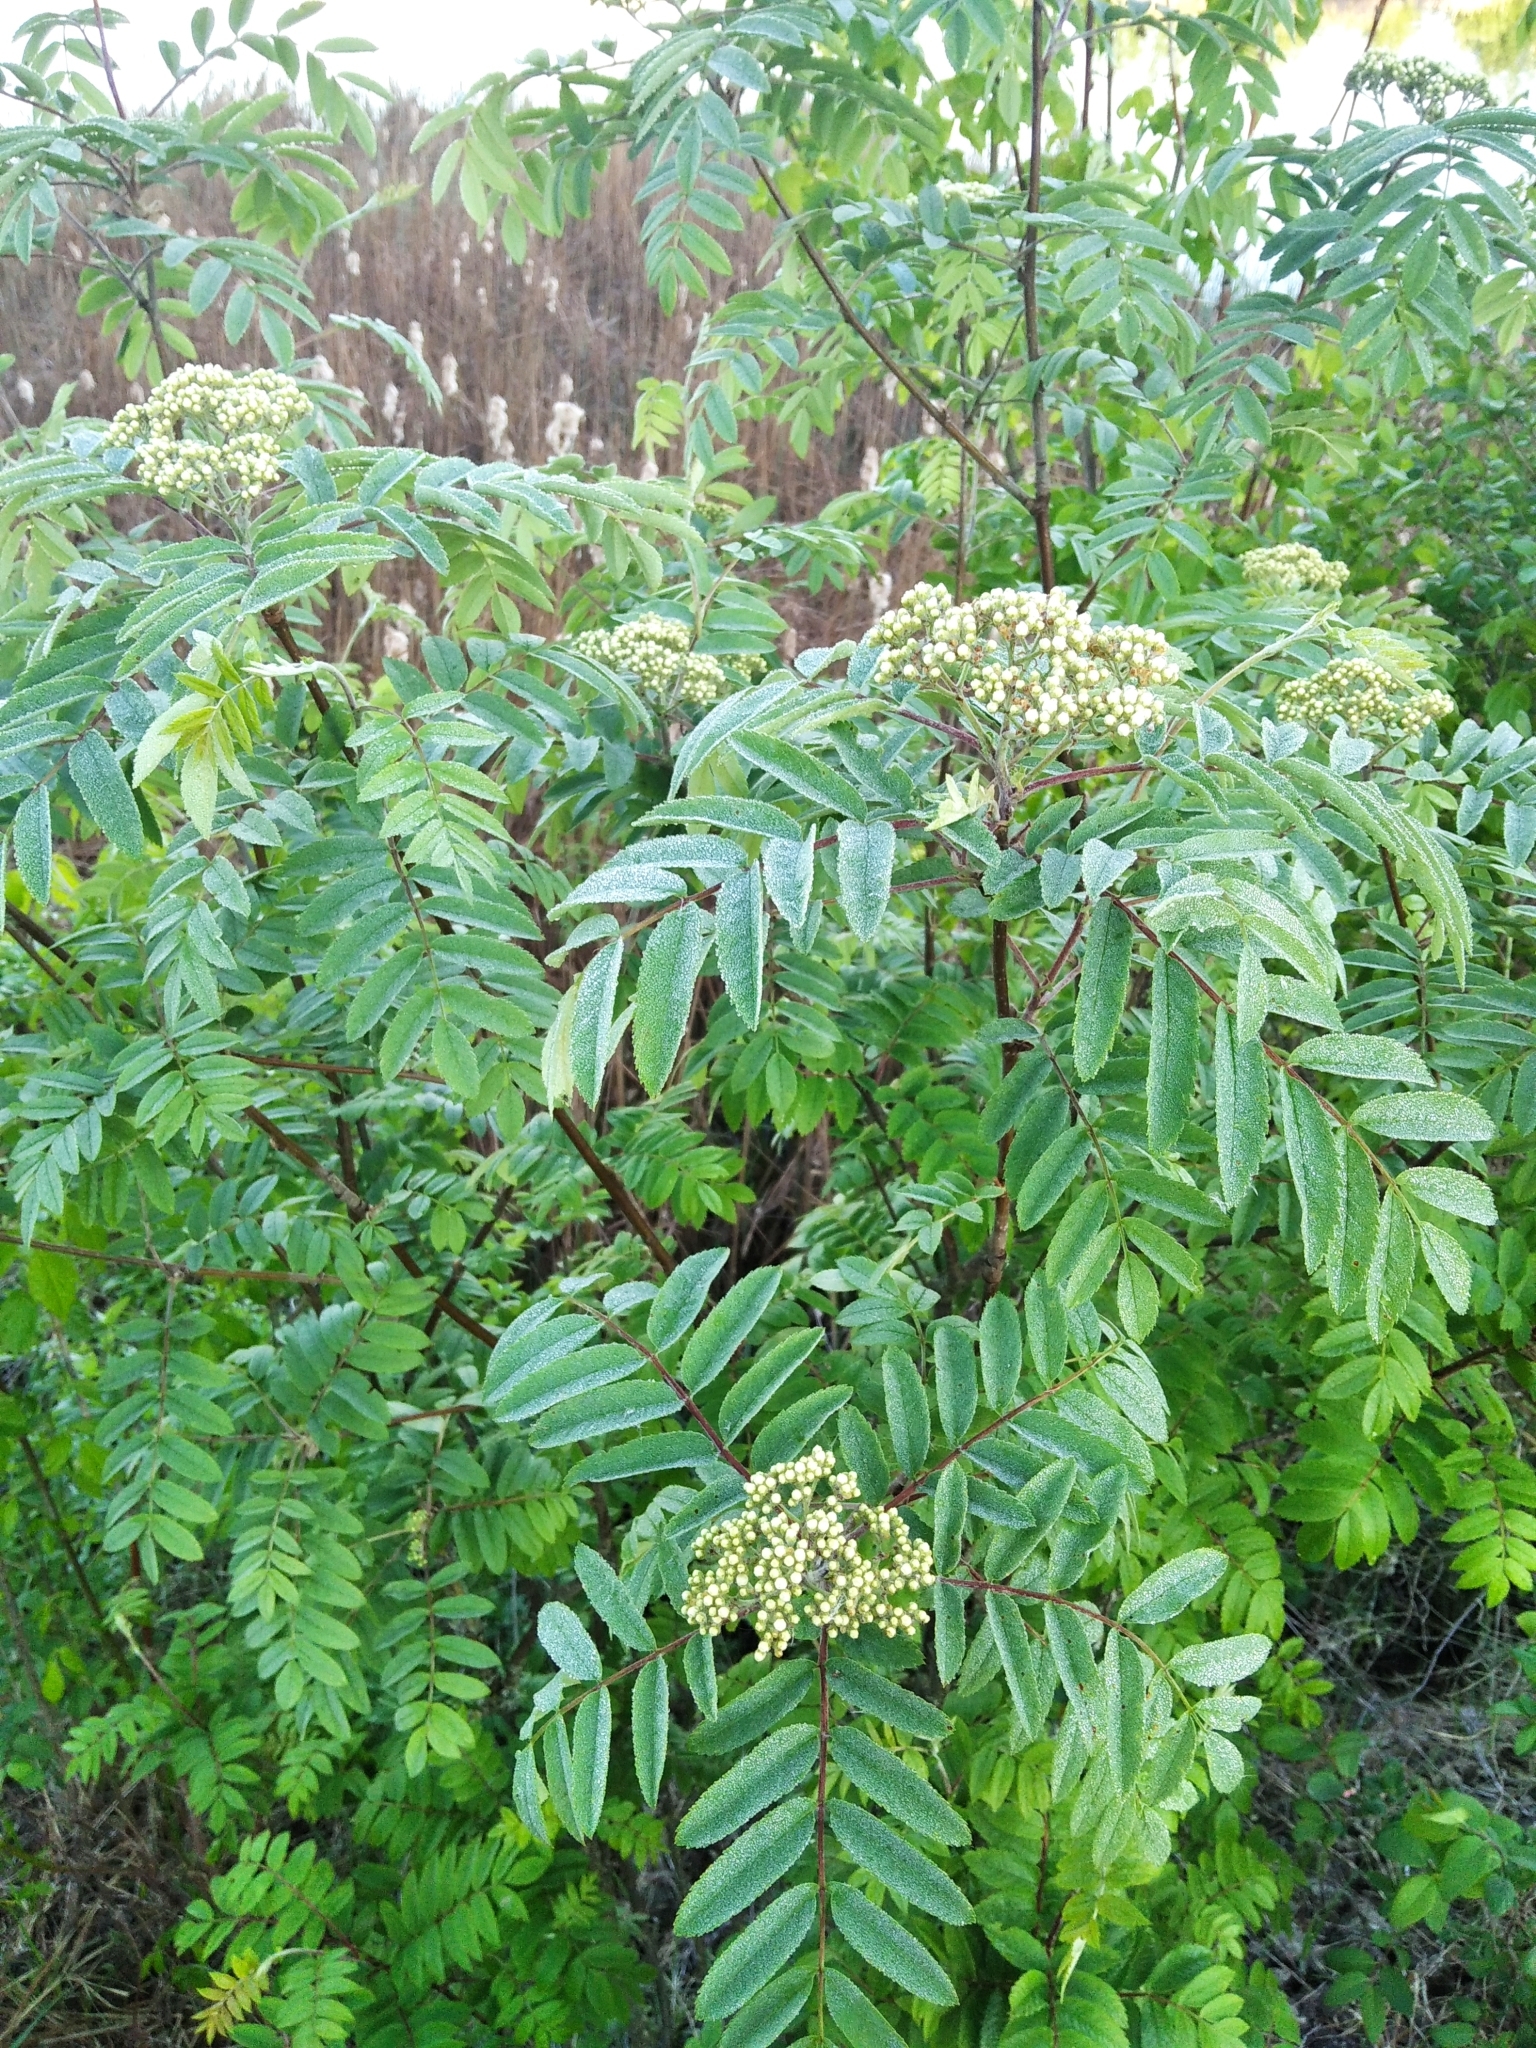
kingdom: Plantae
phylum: Tracheophyta
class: Magnoliopsida
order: Rosales
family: Rosaceae
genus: Sorbus
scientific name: Sorbus aucuparia
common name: Rowan
